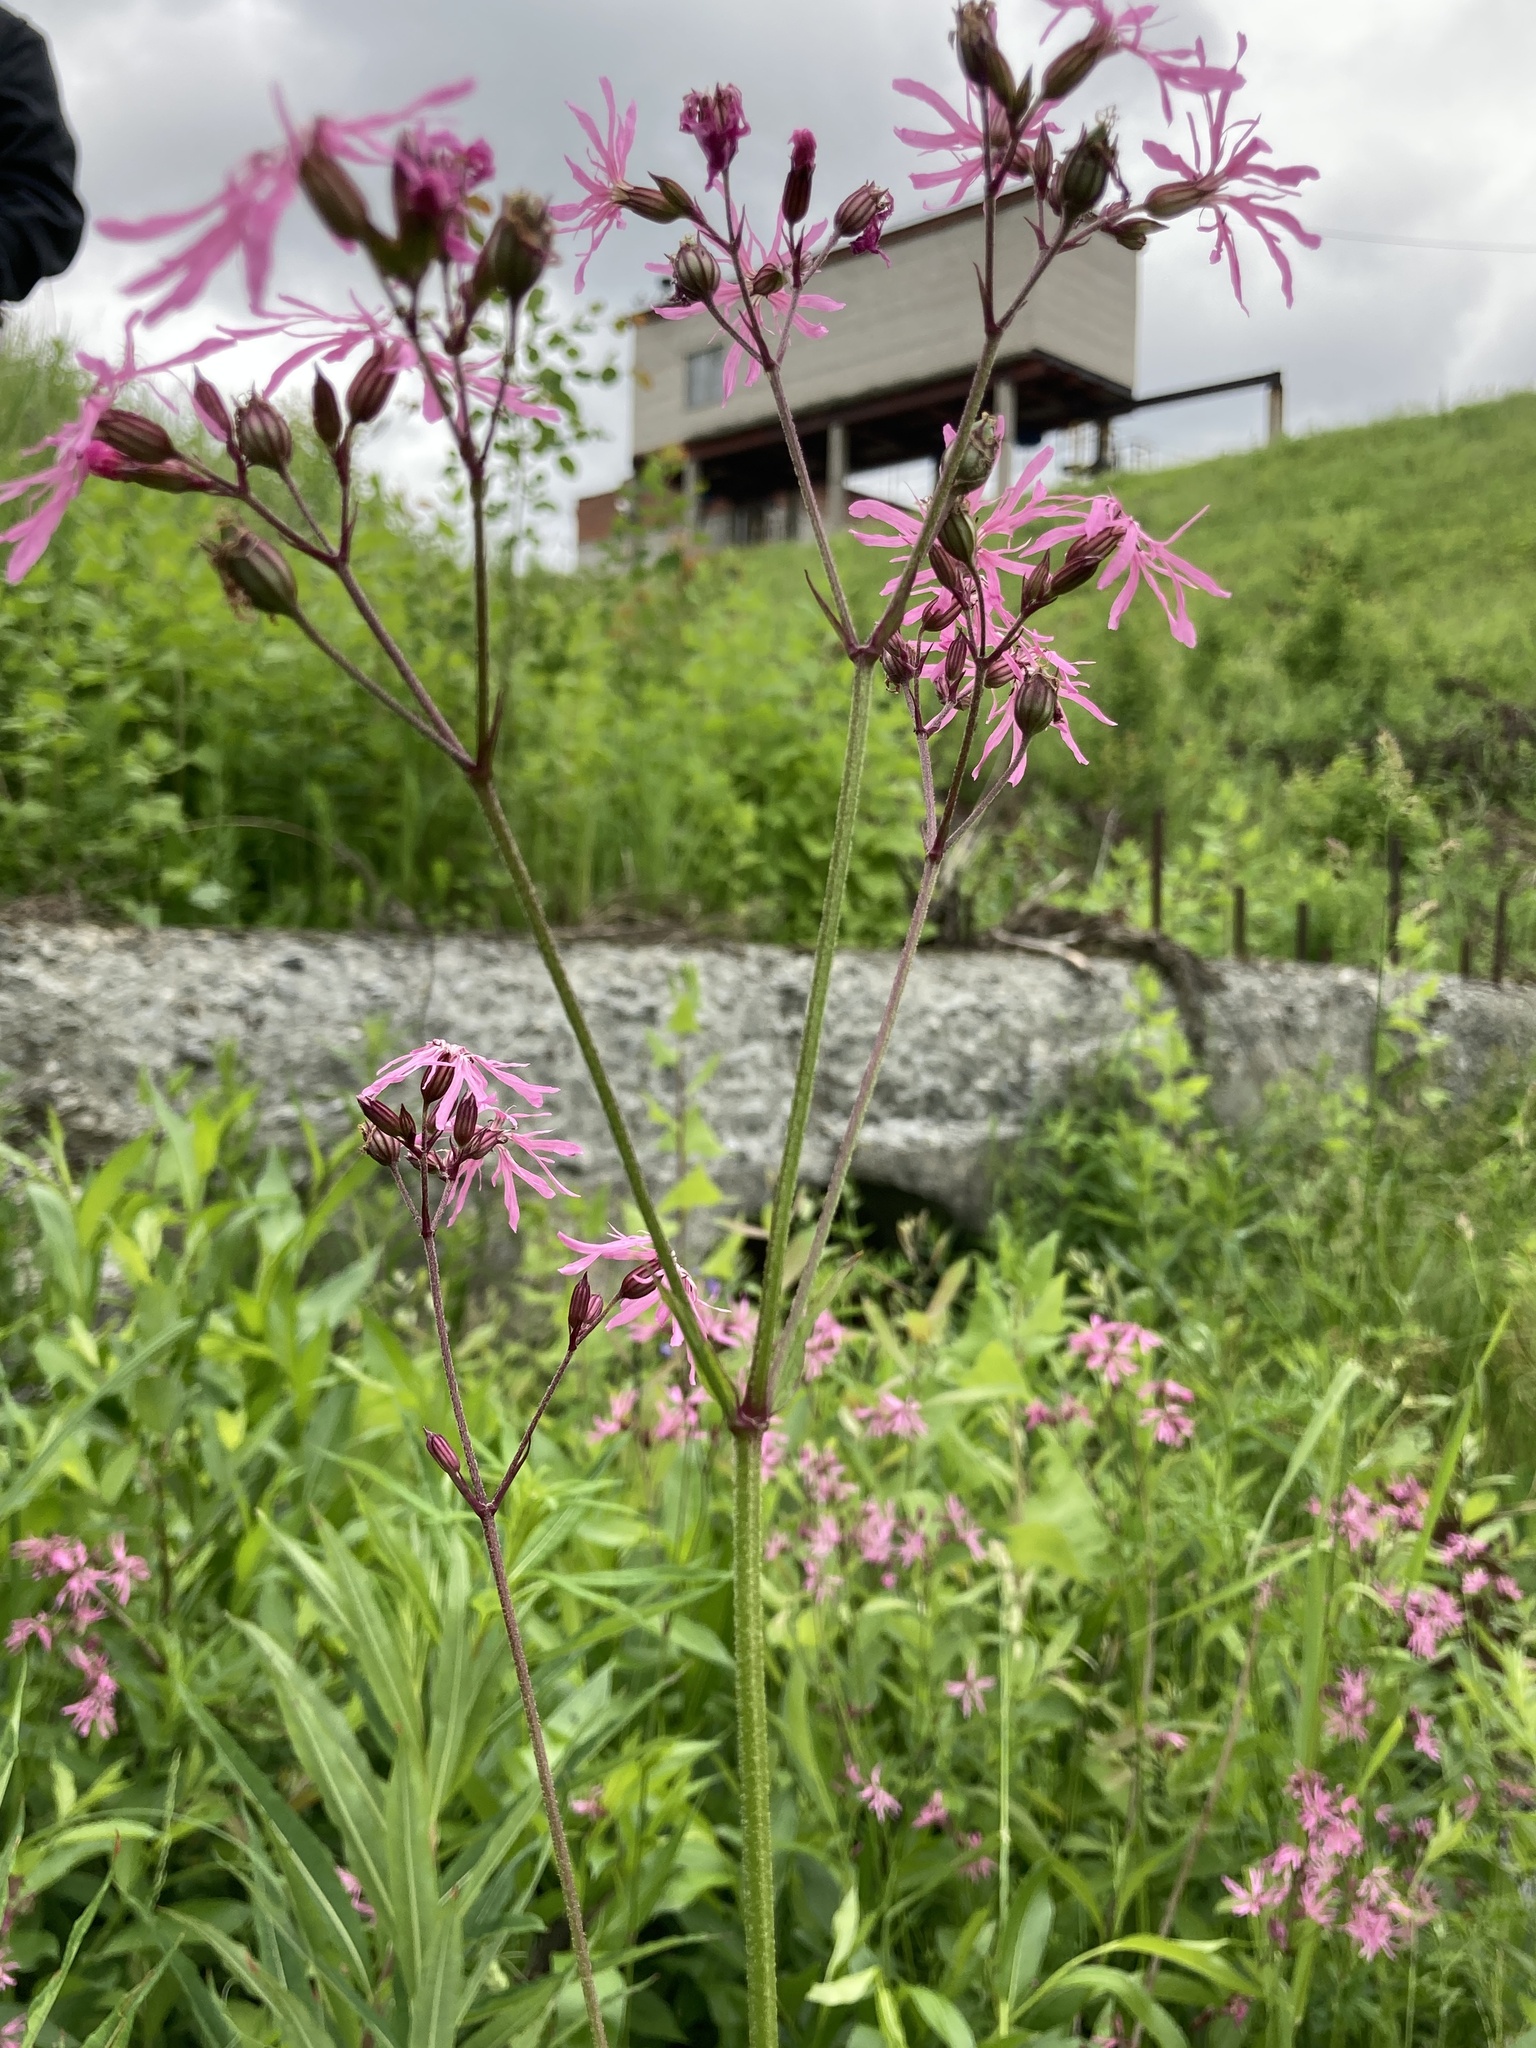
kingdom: Plantae
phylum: Tracheophyta
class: Magnoliopsida
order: Caryophyllales
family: Caryophyllaceae
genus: Silene
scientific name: Silene flos-cuculi
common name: Ragged-robin
